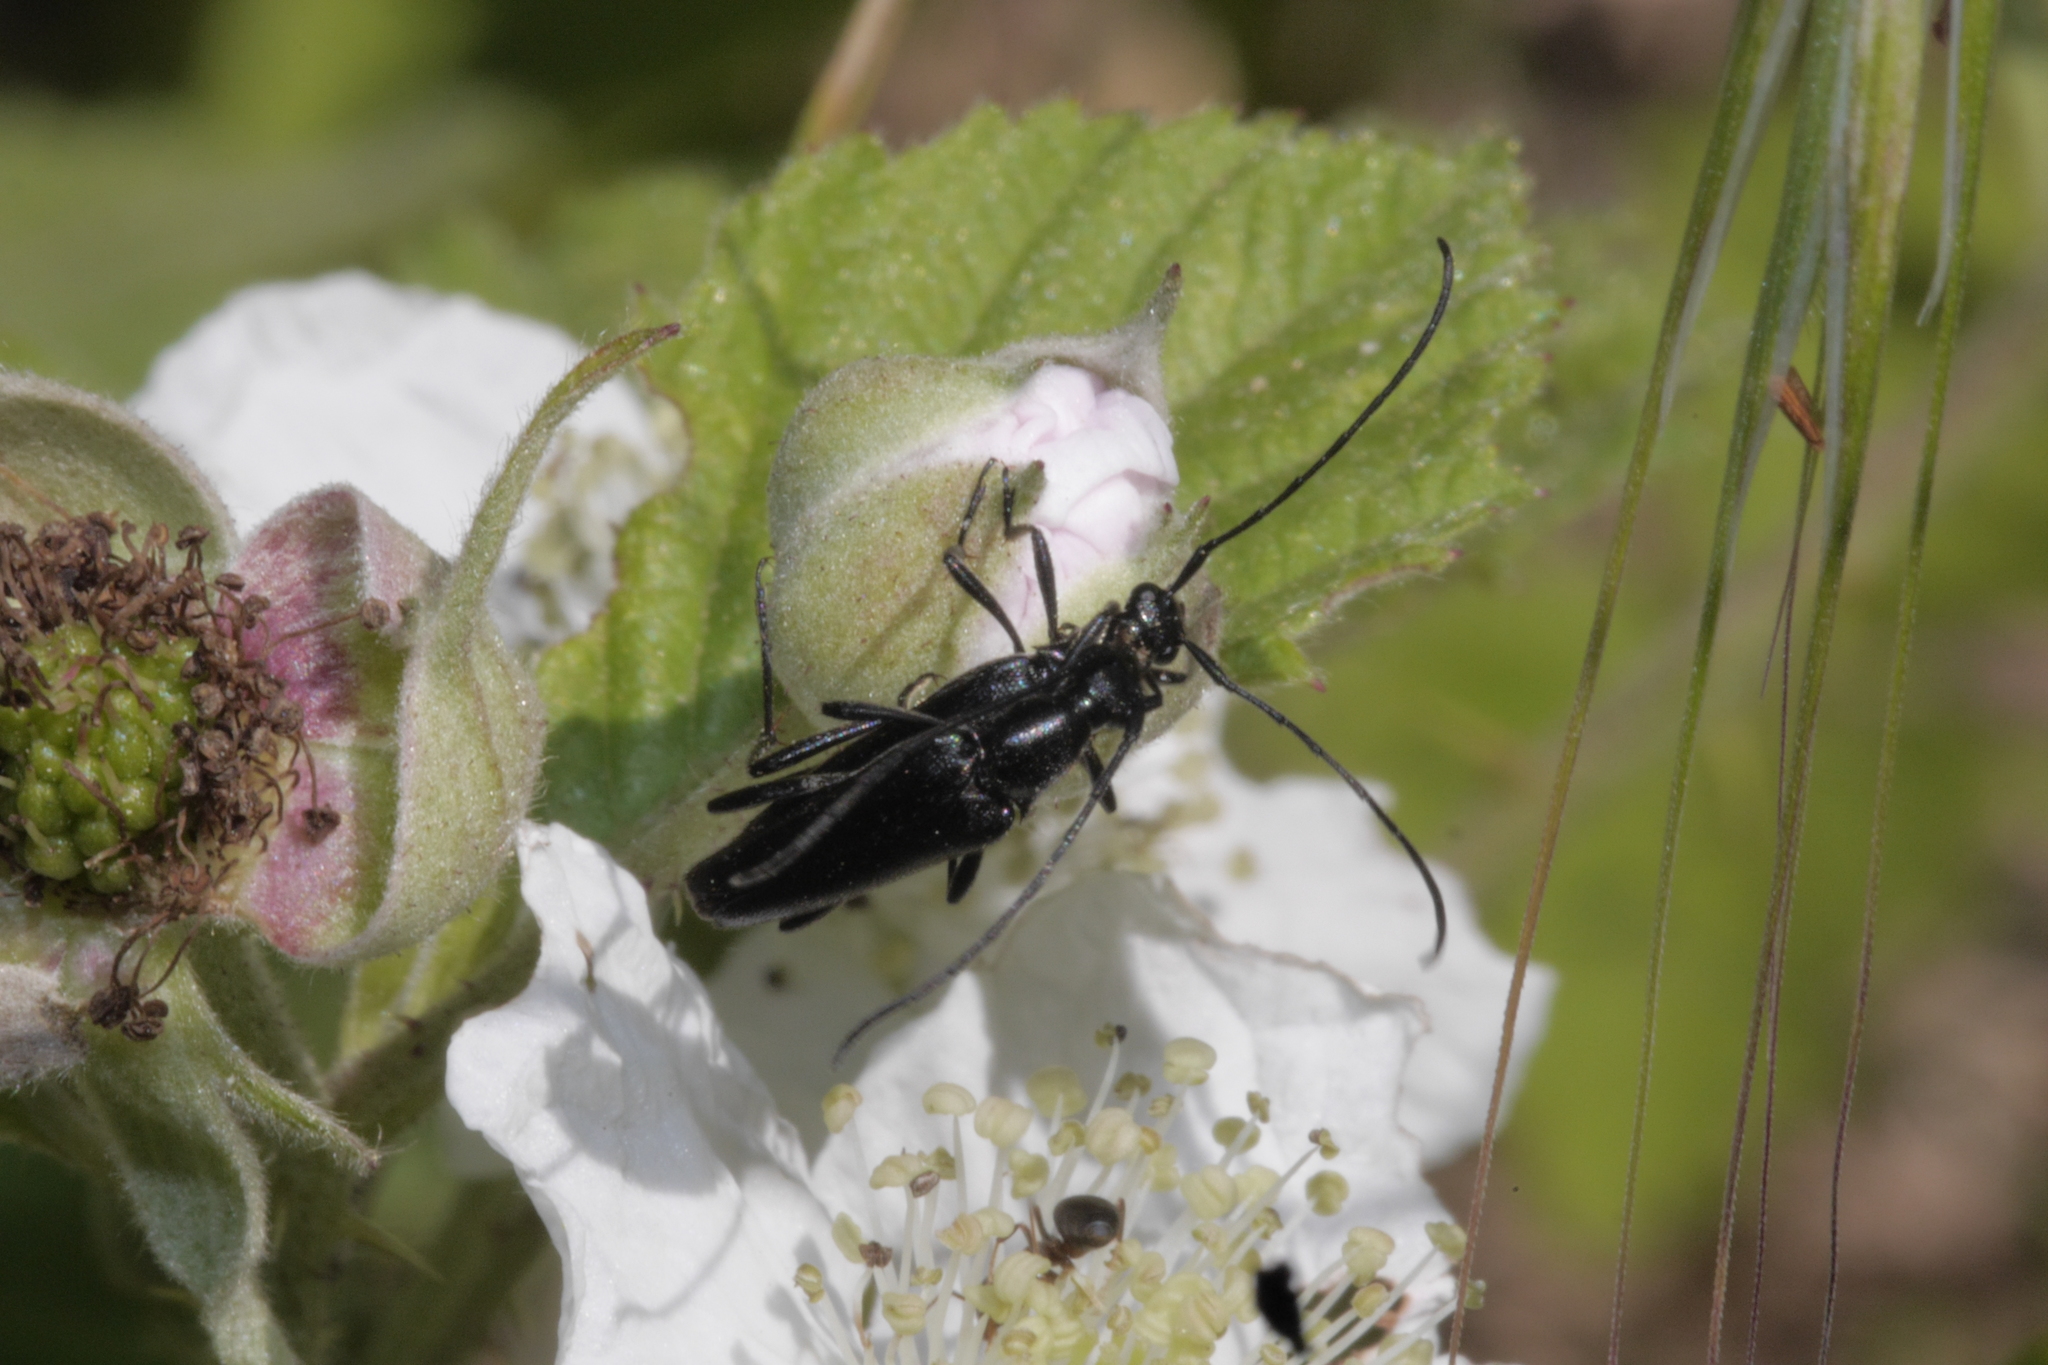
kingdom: Animalia
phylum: Arthropoda
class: Insecta
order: Coleoptera
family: Cerambycidae
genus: Stenurella
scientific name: Stenurella nigra
